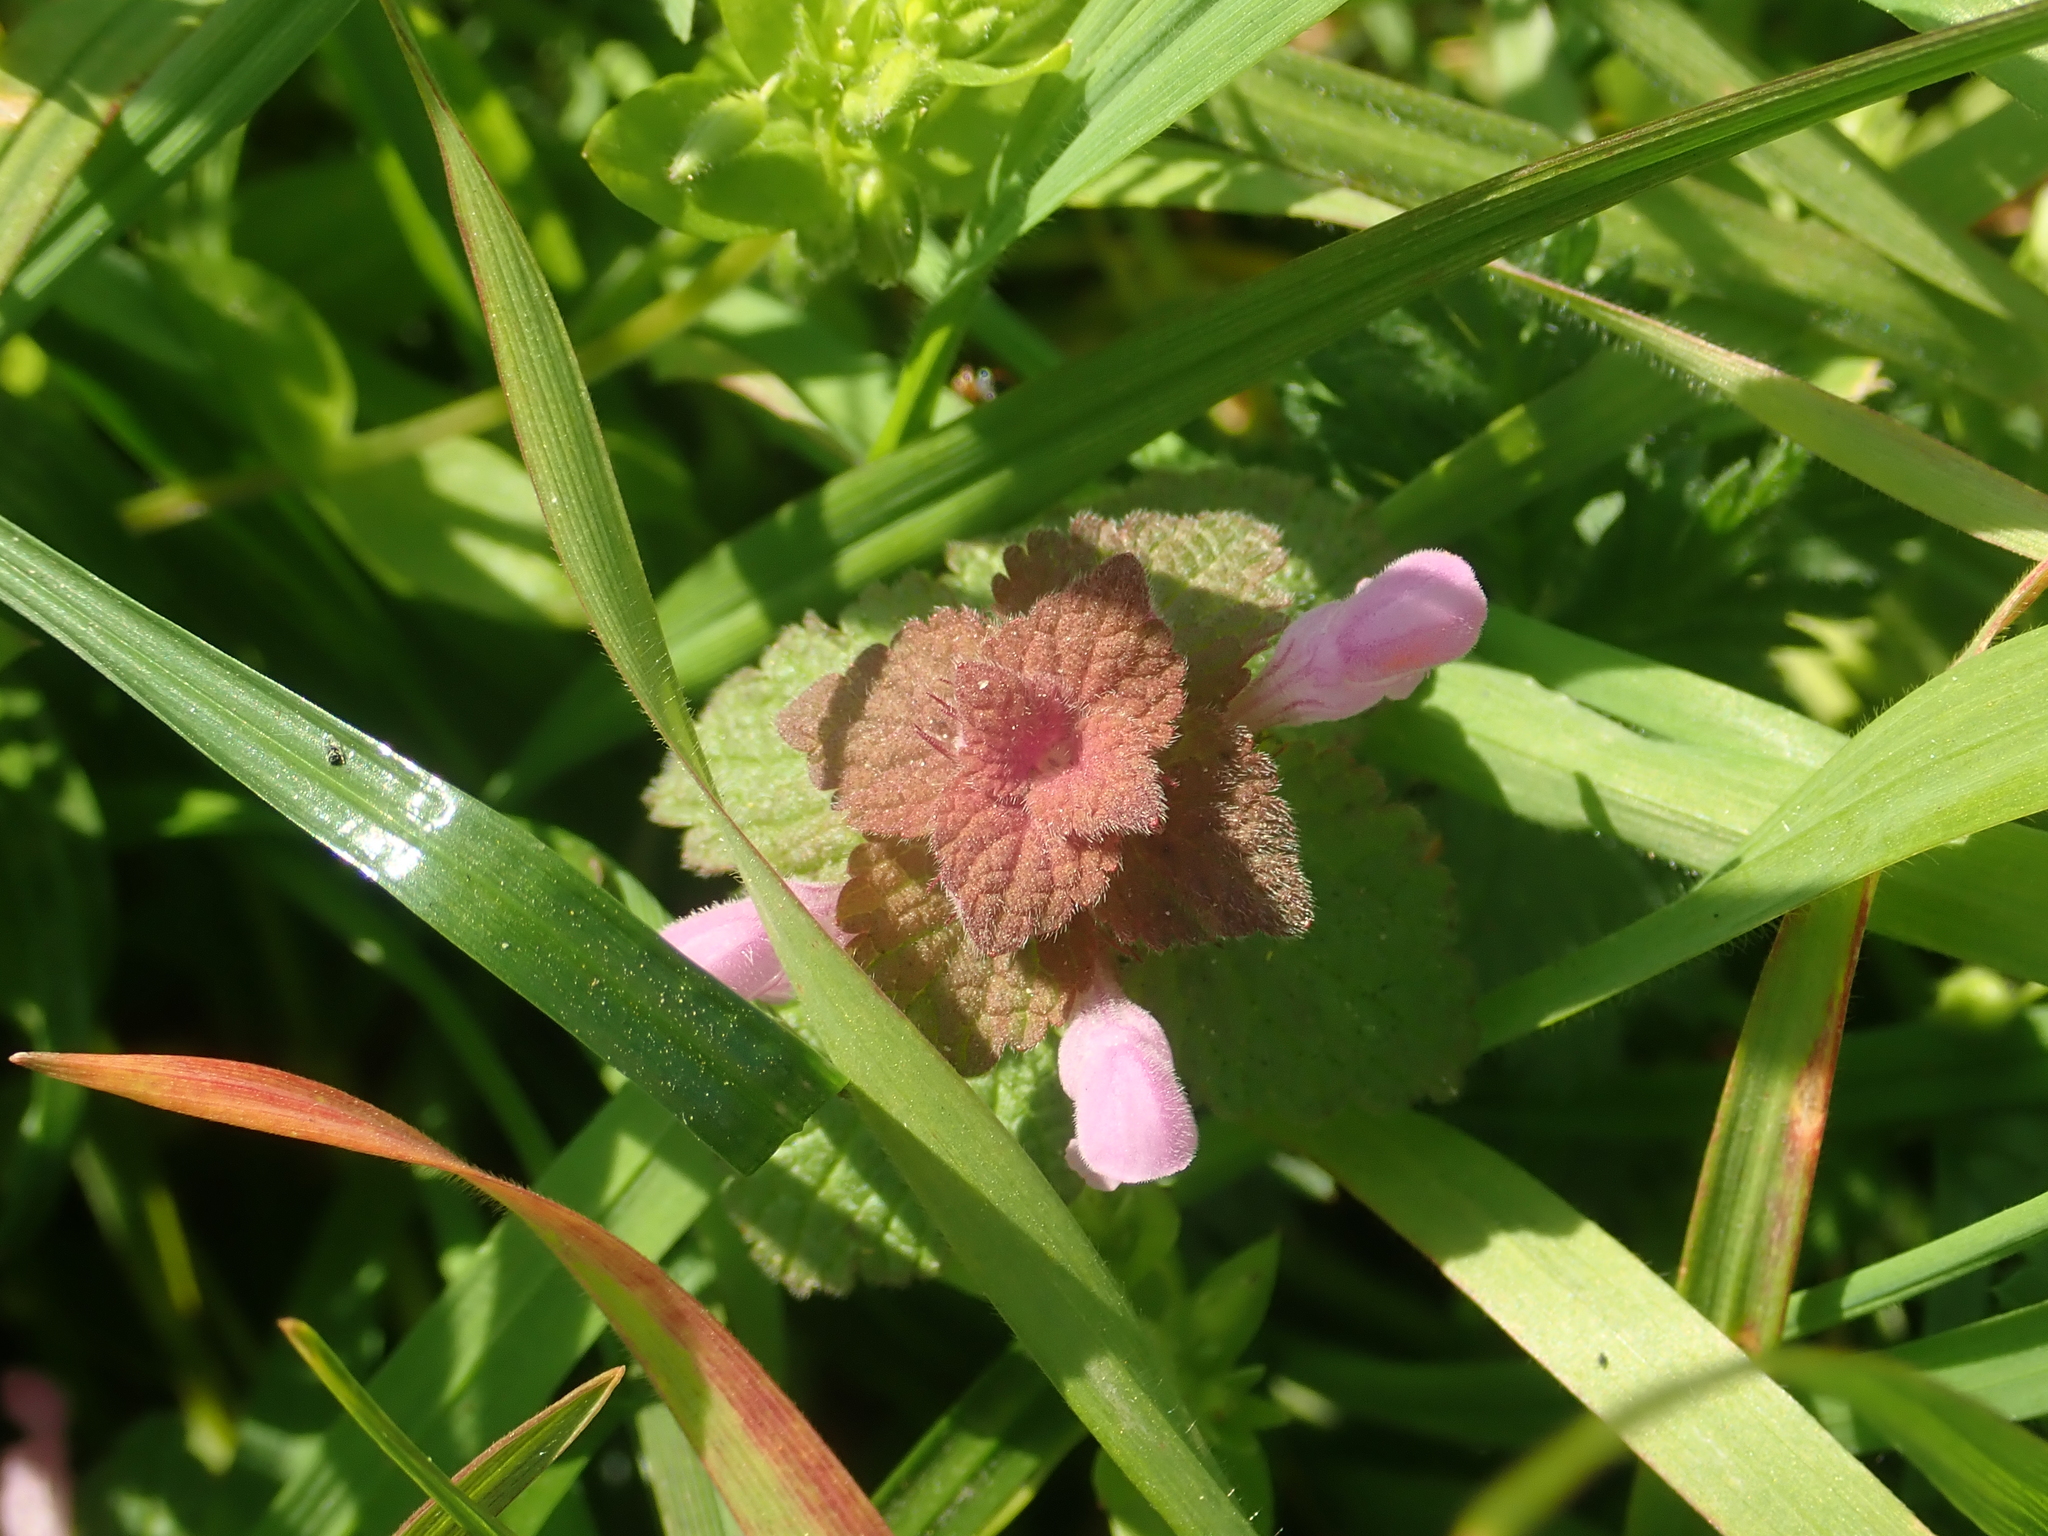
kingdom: Plantae
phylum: Tracheophyta
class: Magnoliopsida
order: Lamiales
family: Lamiaceae
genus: Lamium
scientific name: Lamium purpureum
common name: Red dead-nettle
